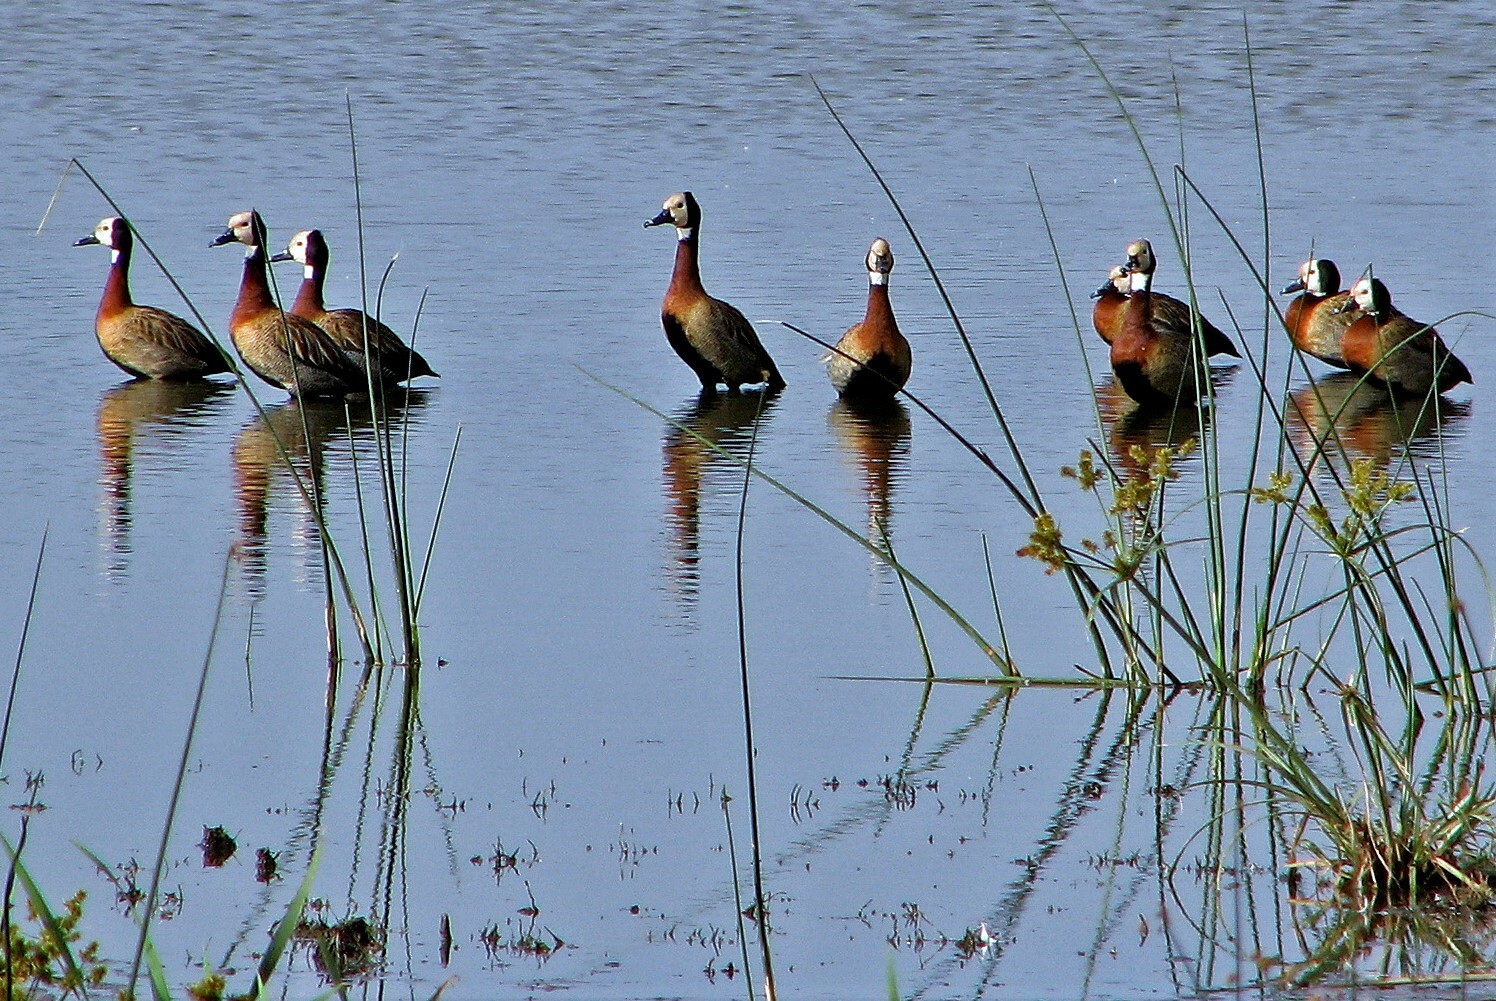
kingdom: Animalia
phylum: Chordata
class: Aves
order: Anseriformes
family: Anatidae
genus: Dendrocygna
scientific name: Dendrocygna viduata
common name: White-faced whistling duck
